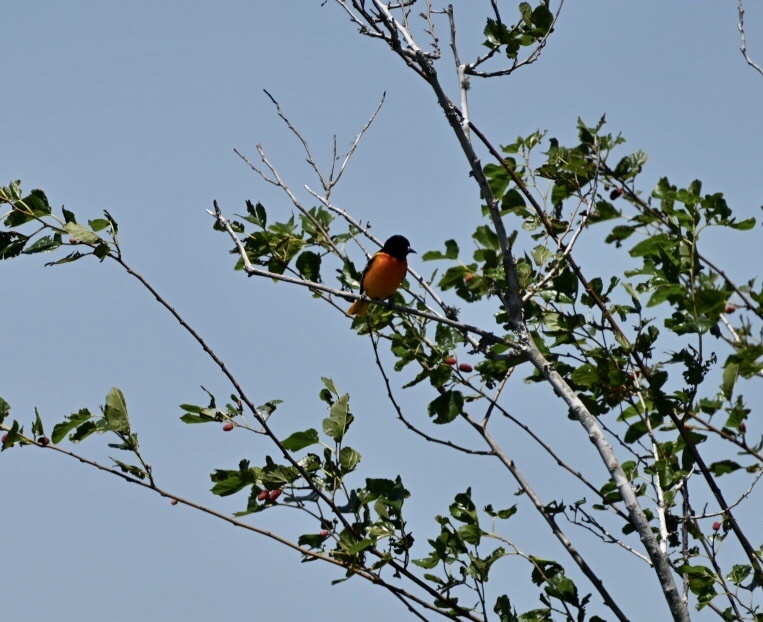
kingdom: Animalia
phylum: Chordata
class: Aves
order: Passeriformes
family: Icteridae
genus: Icterus
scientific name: Icterus galbula
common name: Baltimore oriole
